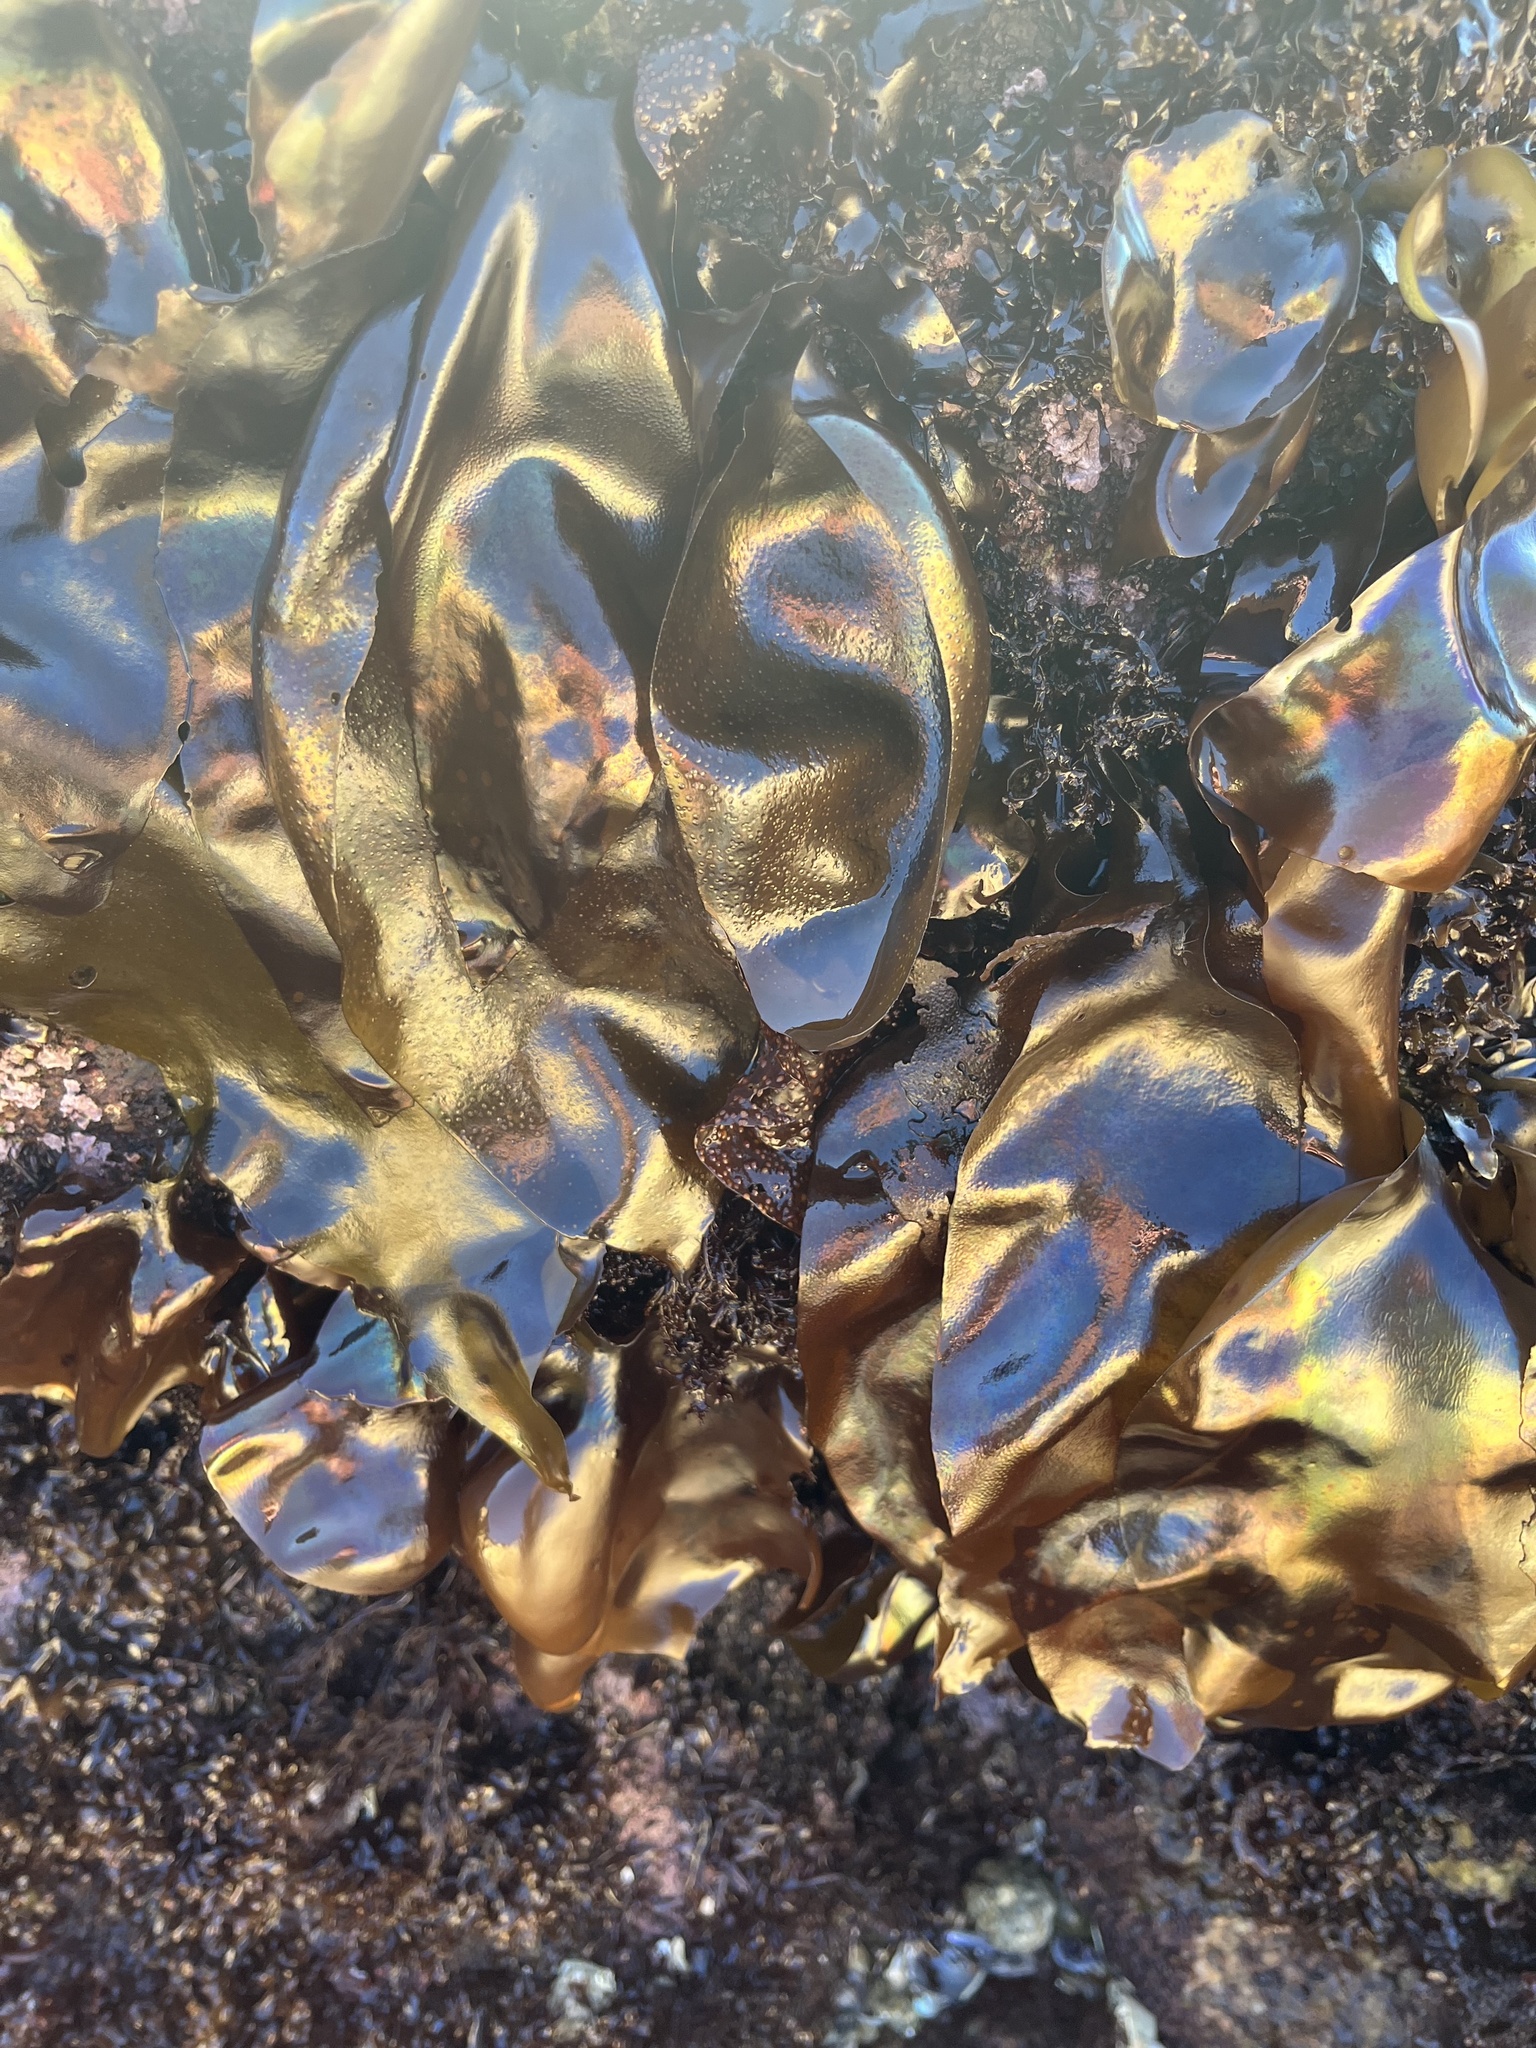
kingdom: Plantae
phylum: Rhodophyta
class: Florideophyceae
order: Gigartinales
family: Gigartinaceae
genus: Mazzaella
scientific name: Mazzaella splendens
